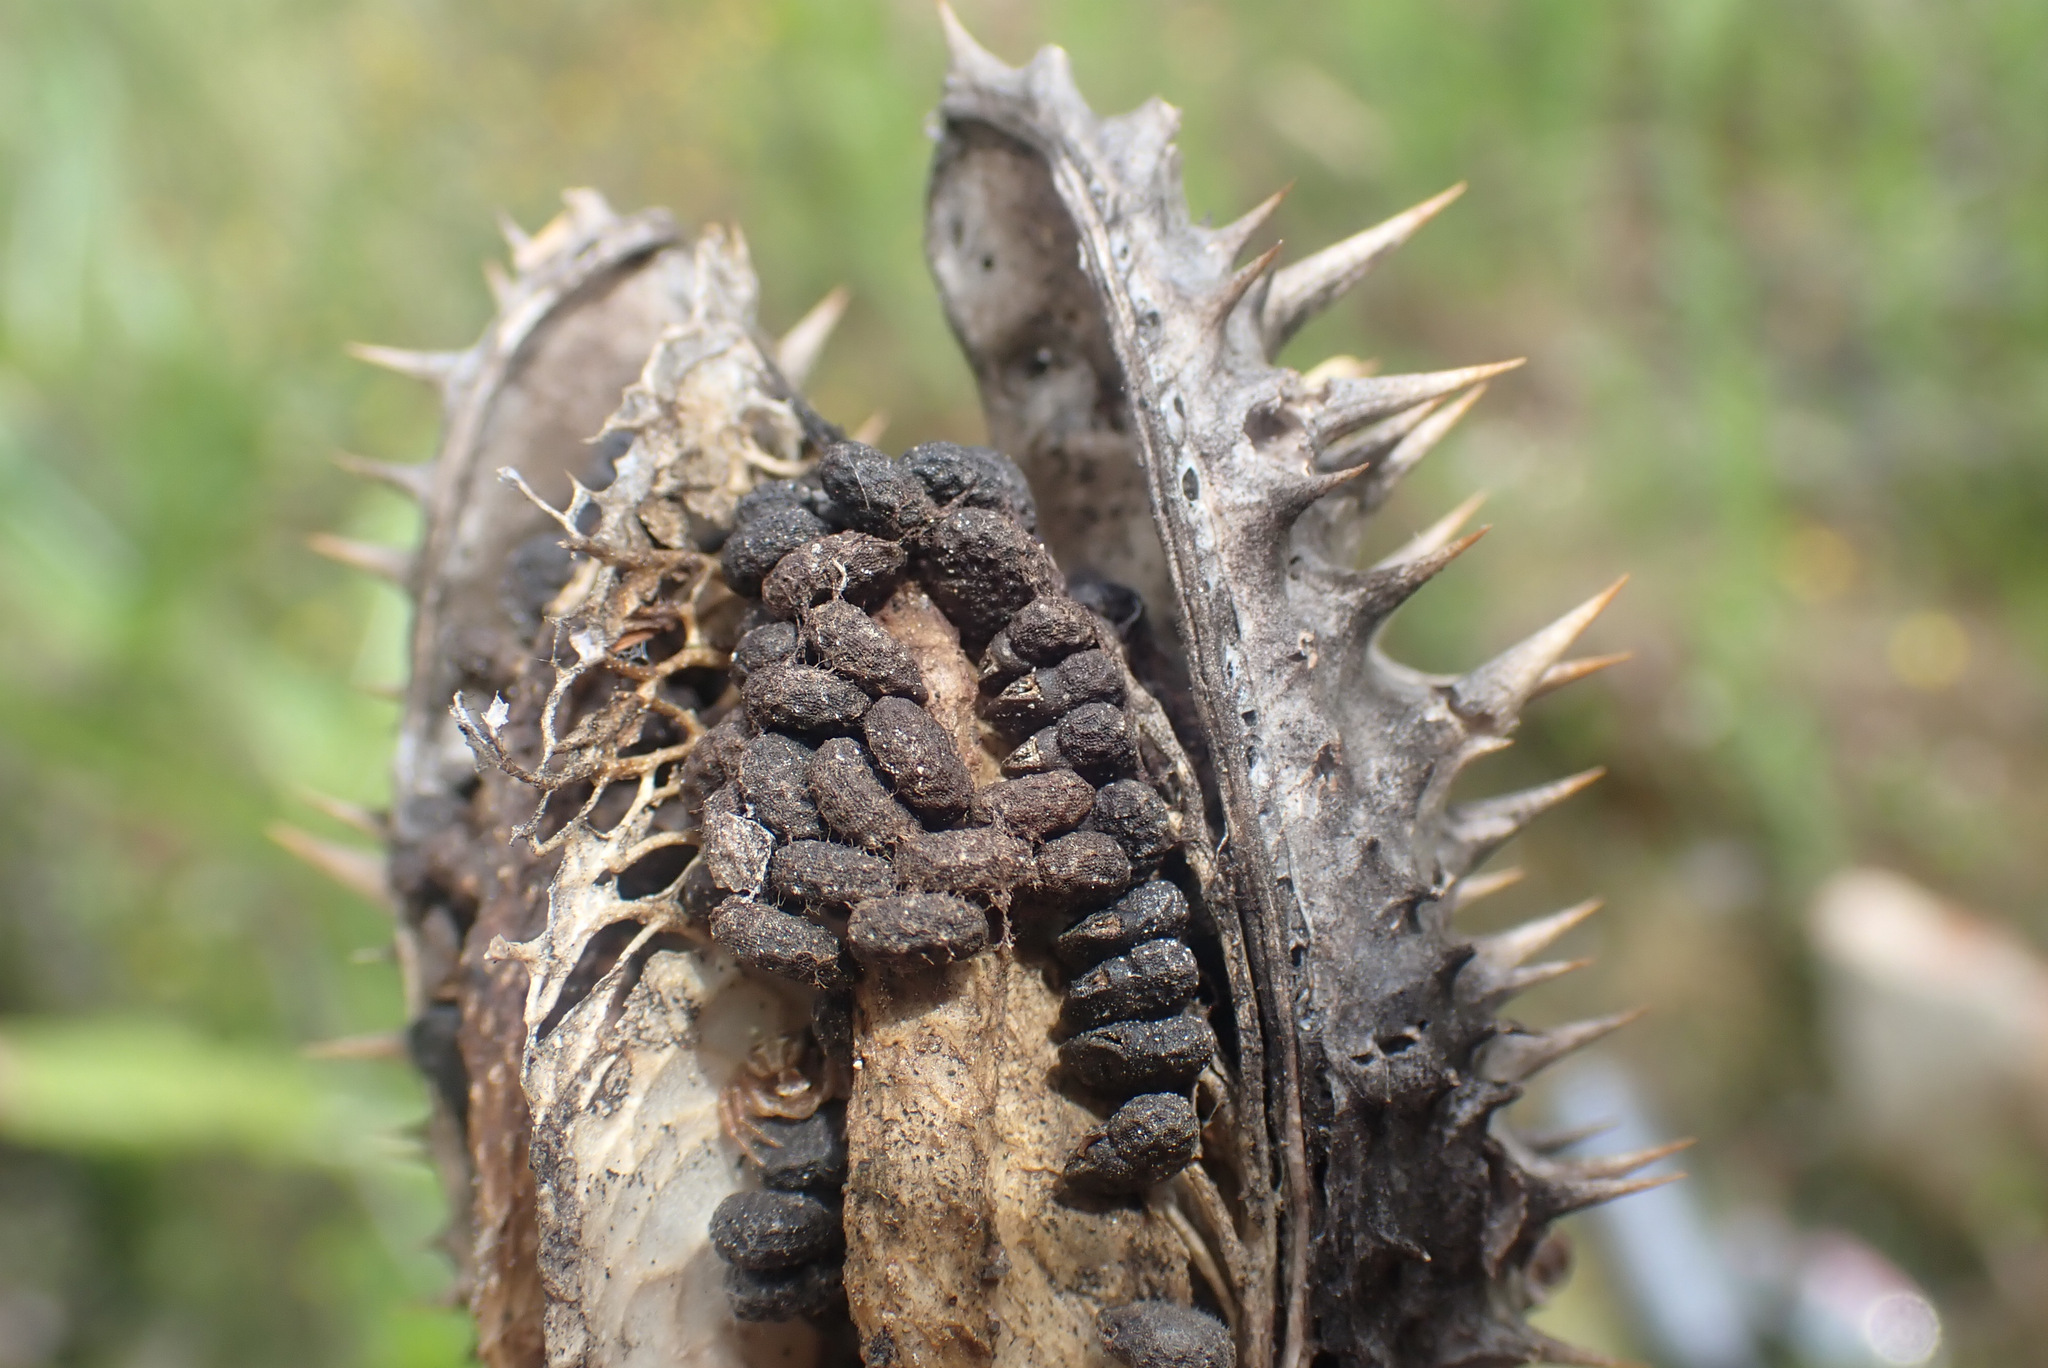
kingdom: Plantae
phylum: Tracheophyta
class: Magnoliopsida
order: Solanales
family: Solanaceae
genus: Datura
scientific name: Datura stramonium
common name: Thorn-apple
